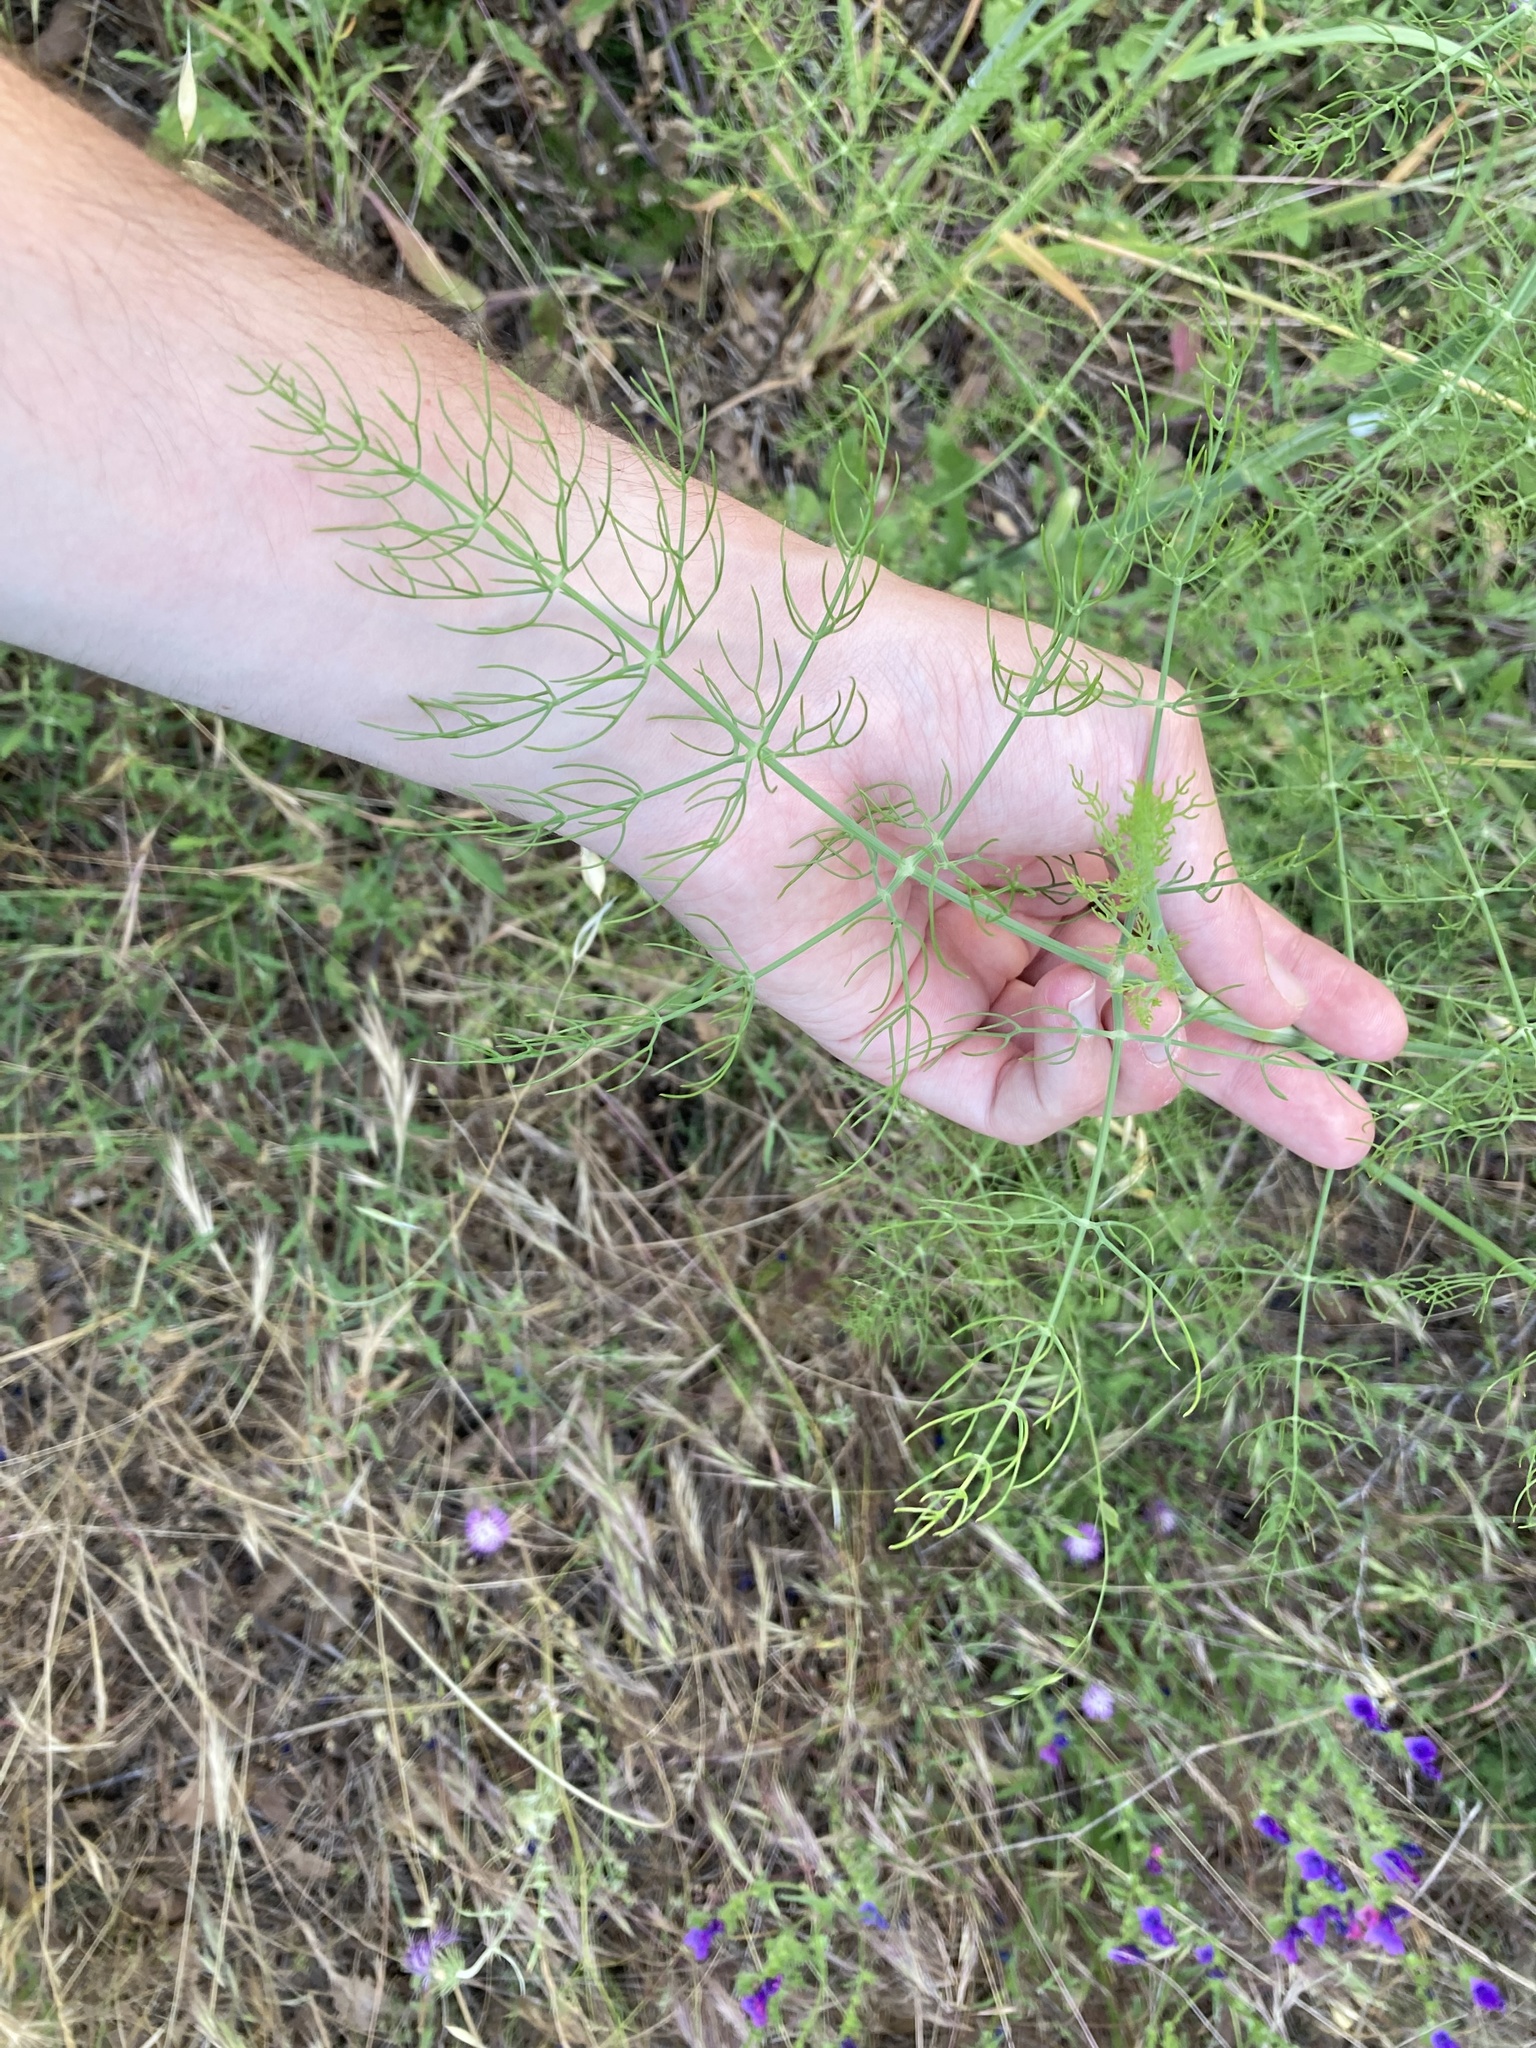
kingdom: Plantae
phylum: Tracheophyta
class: Magnoliopsida
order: Apiales
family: Apiaceae
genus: Foeniculum
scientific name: Foeniculum vulgare
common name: Fennel
